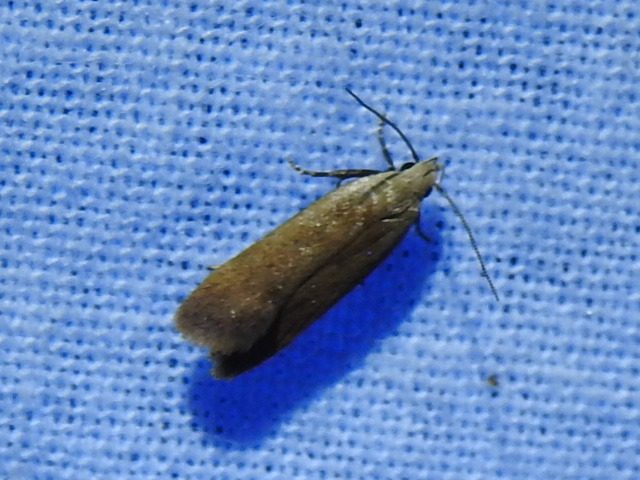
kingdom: Animalia
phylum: Arthropoda
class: Insecta
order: Lepidoptera
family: Gelechiidae
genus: Anacampsis
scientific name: Anacampsis fullonella
